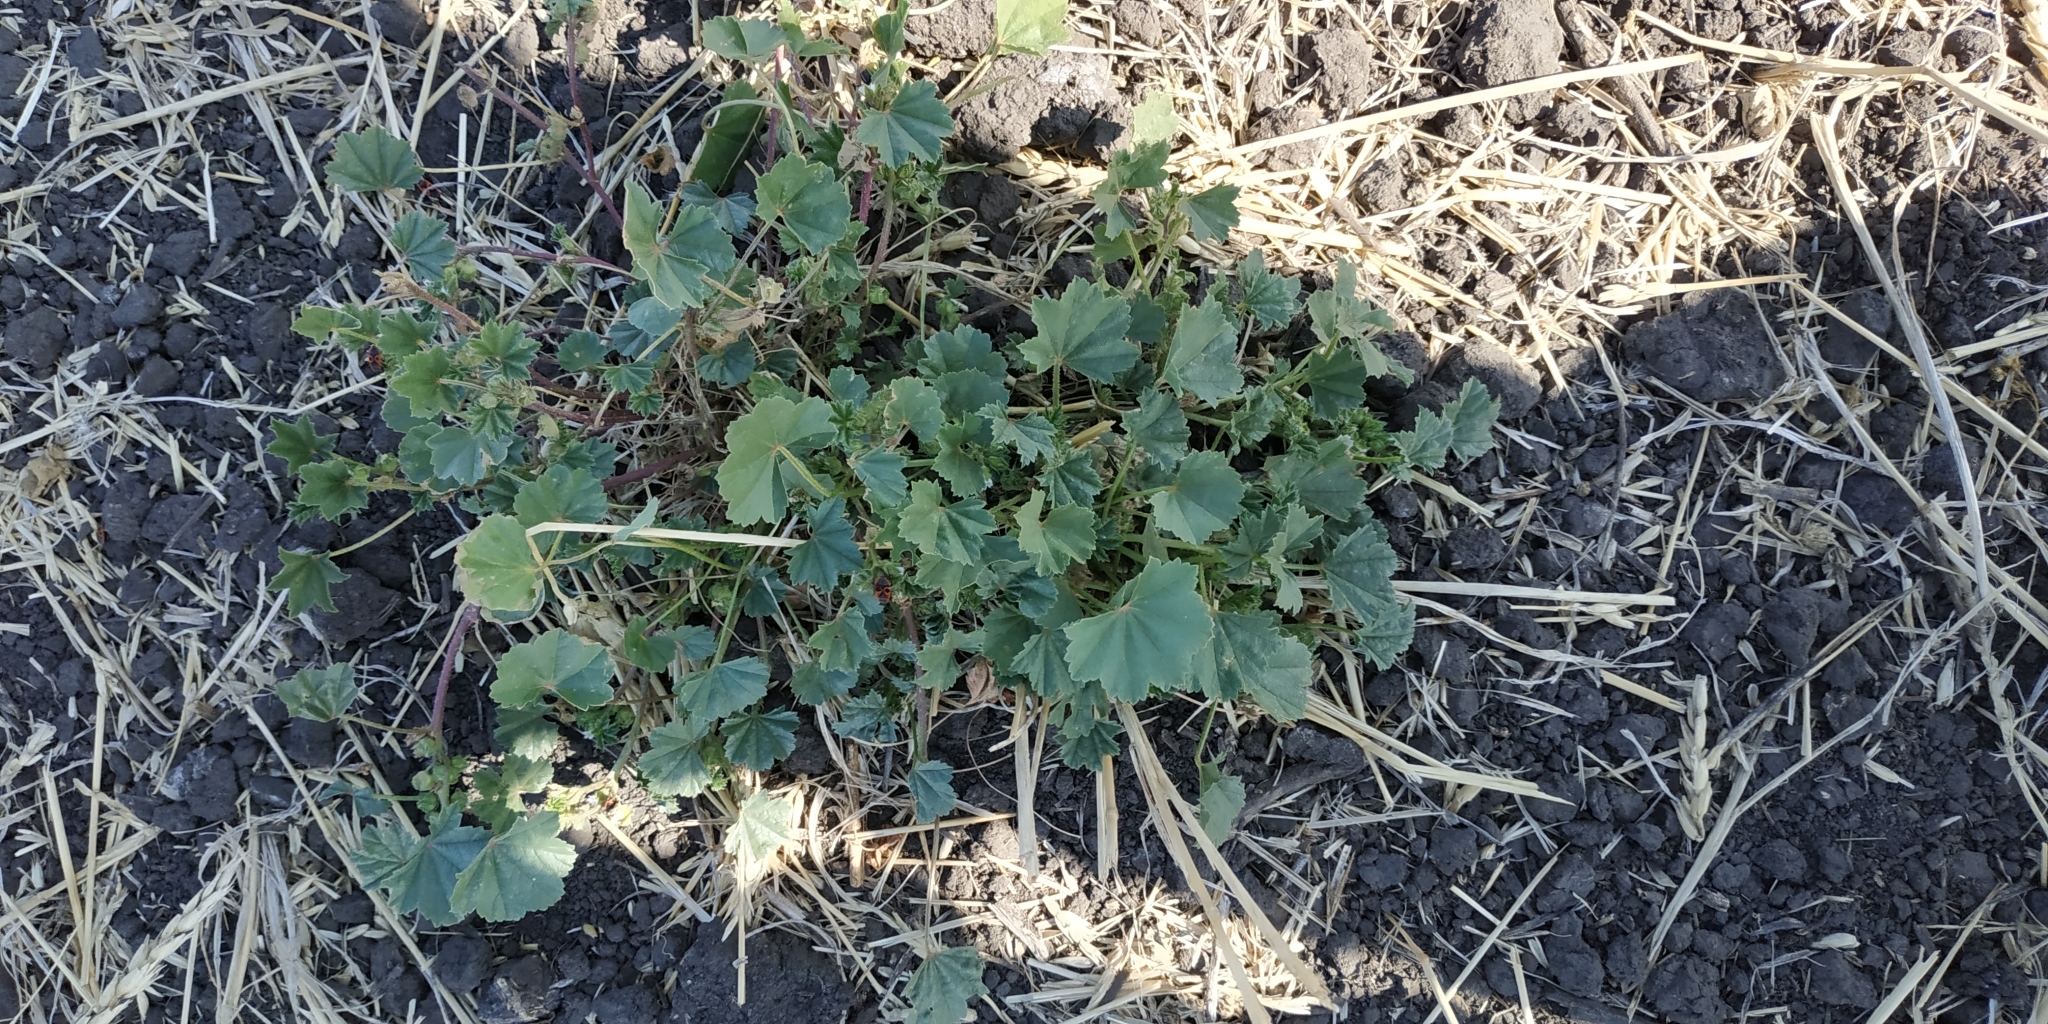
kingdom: Plantae
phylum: Tracheophyta
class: Magnoliopsida
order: Malvales
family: Malvaceae
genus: Malva
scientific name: Malva pusilla
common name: Small mallow
